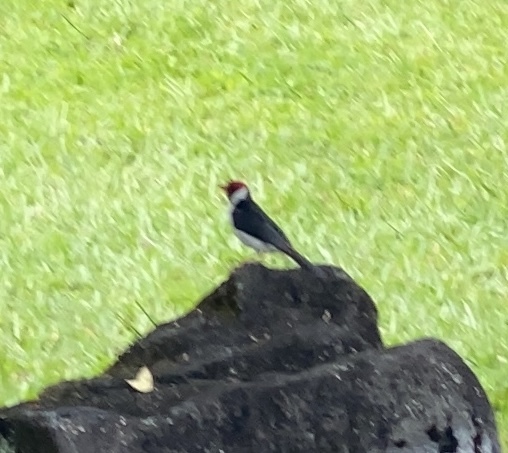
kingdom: Animalia
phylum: Chordata
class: Aves
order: Passeriformes
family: Thraupidae
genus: Paroaria
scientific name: Paroaria capitata
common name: Yellow-billed cardinal
